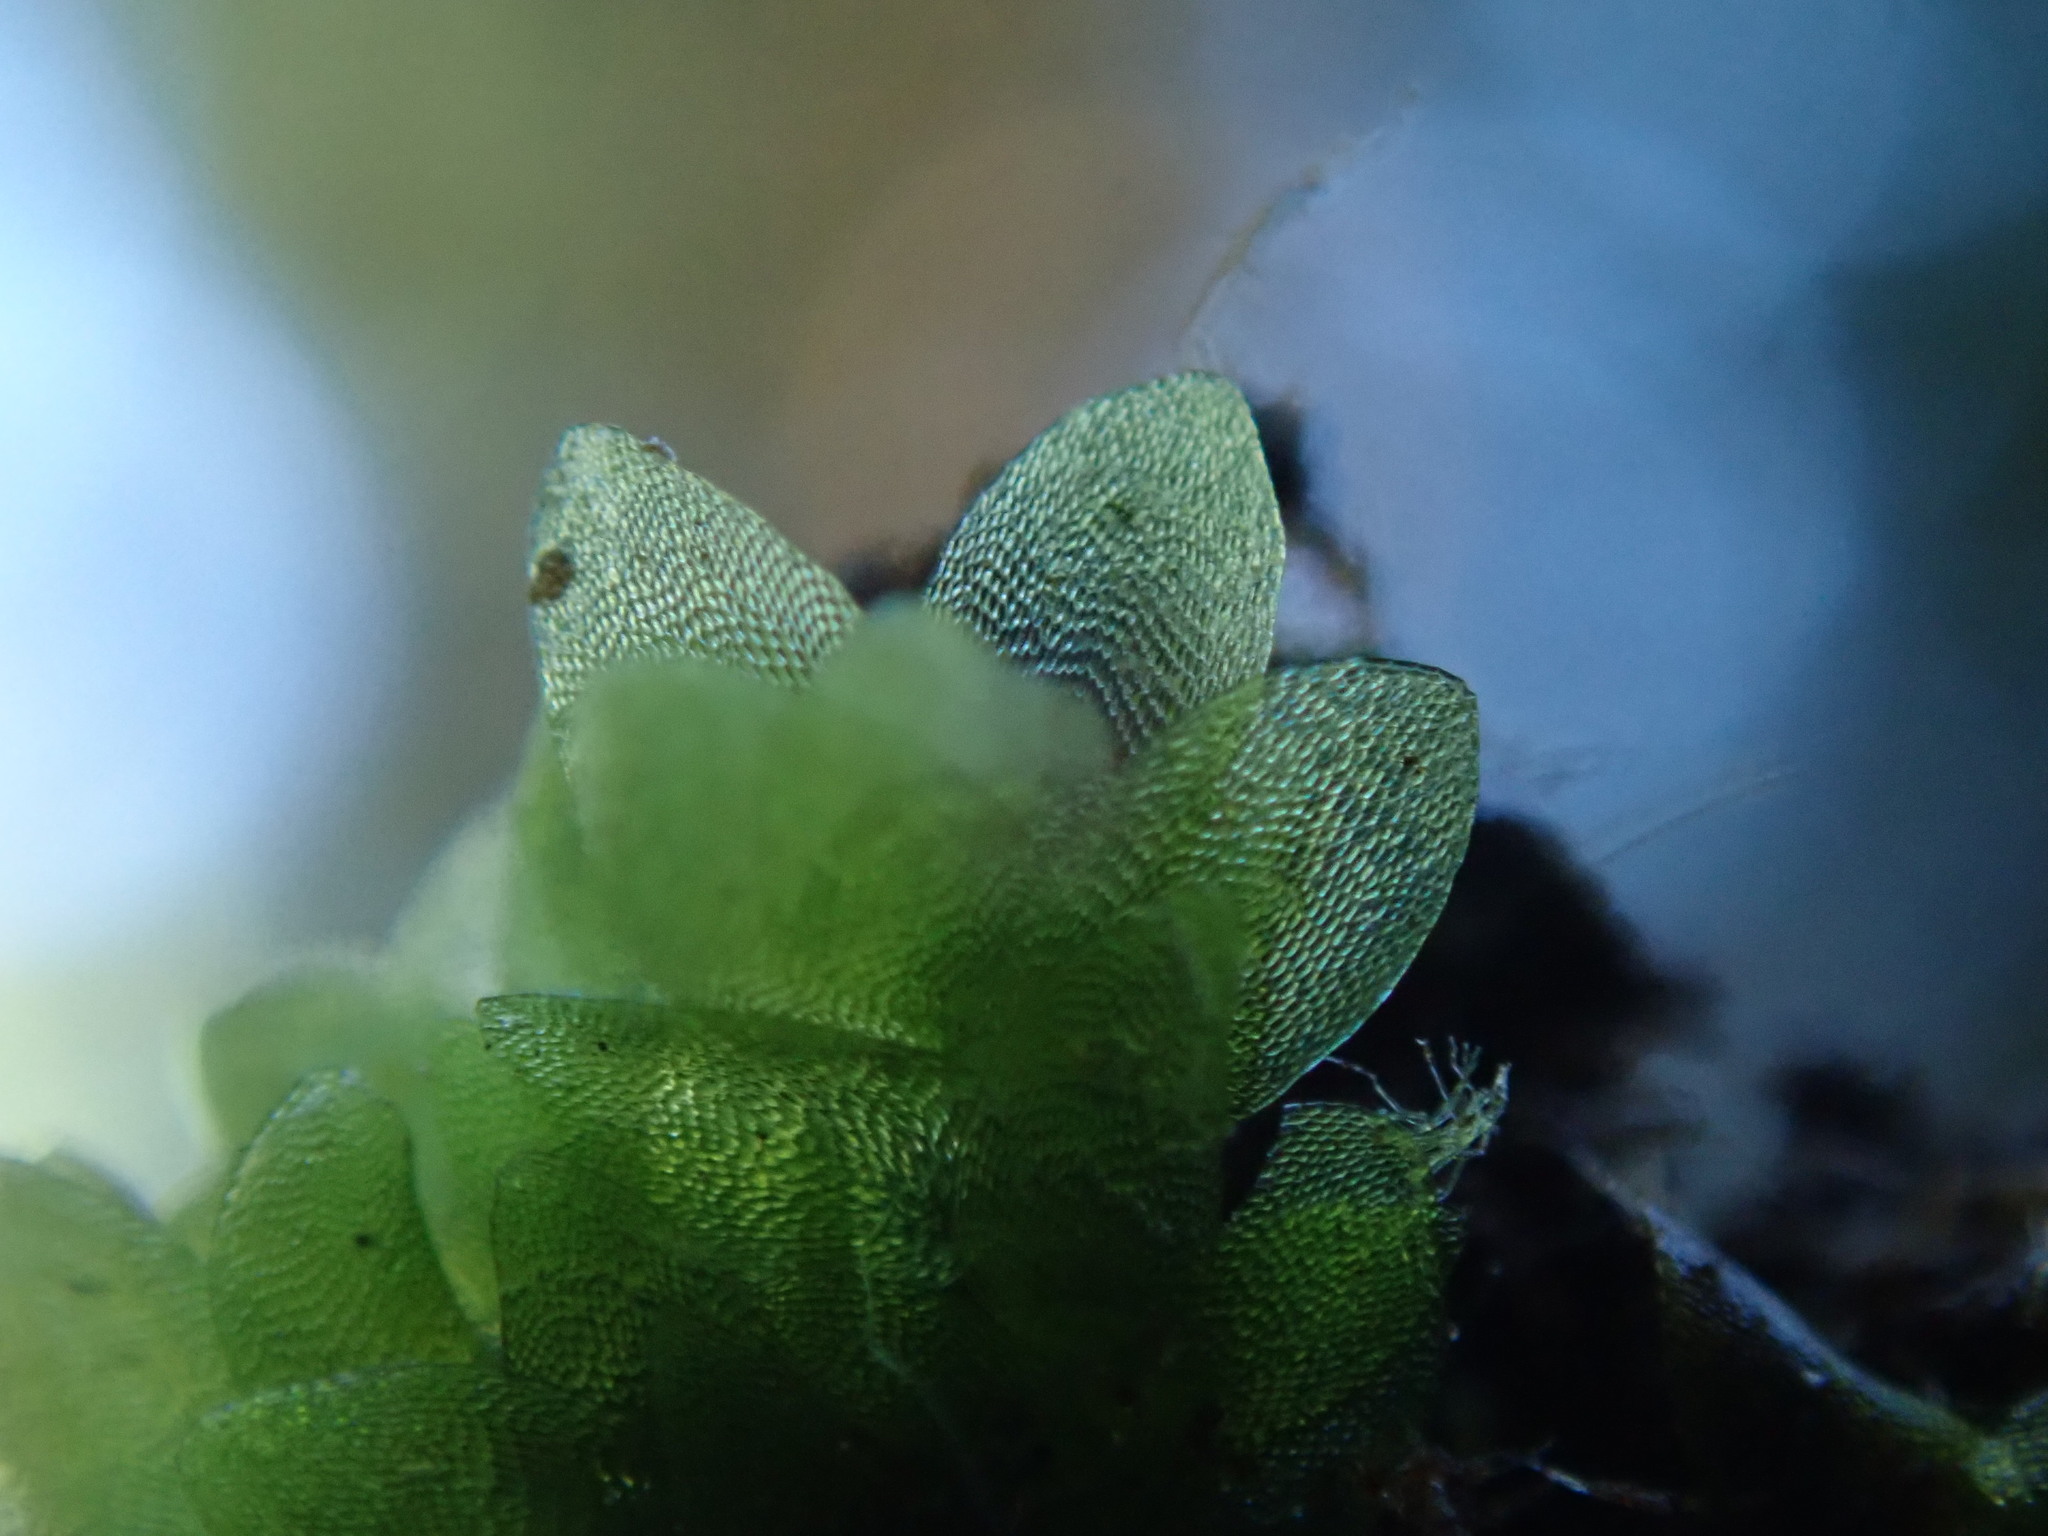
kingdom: Plantae
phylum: Bryophyta
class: Bryopsida
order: Hookeriales
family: Hookeriaceae
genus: Hookeria
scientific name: Hookeria lucens
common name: Shining hookeria
